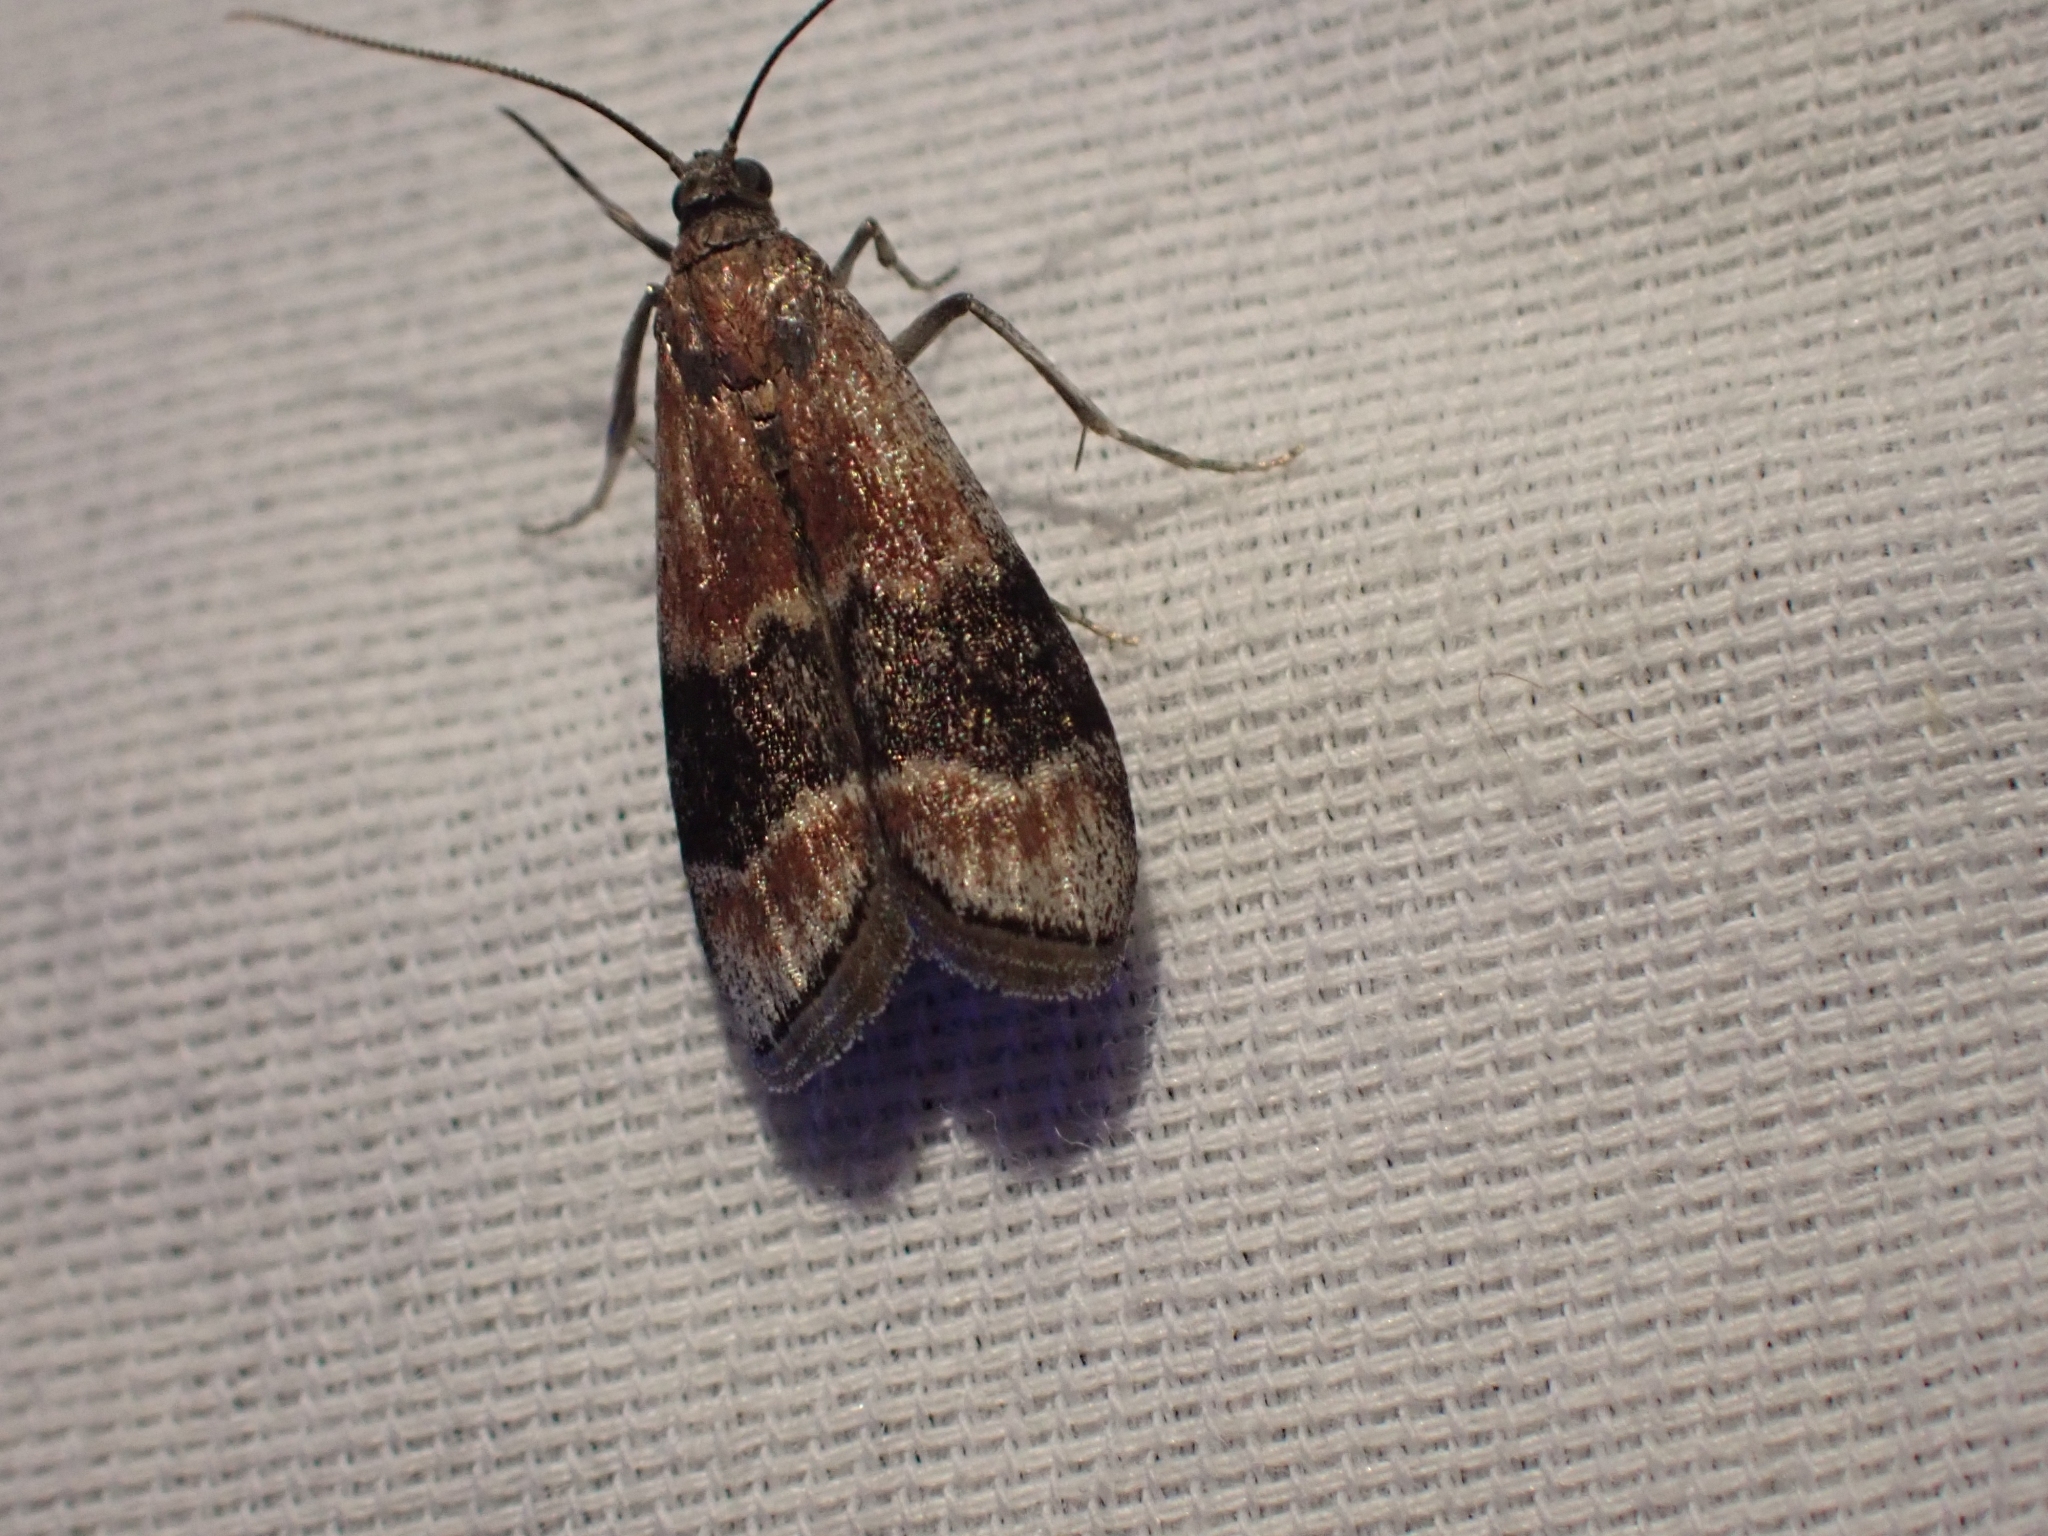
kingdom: Animalia
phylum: Arthropoda
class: Insecta
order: Lepidoptera
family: Pyralidae
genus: Euzophera
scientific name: Euzophera semifuneralis
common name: American plum borer moth
